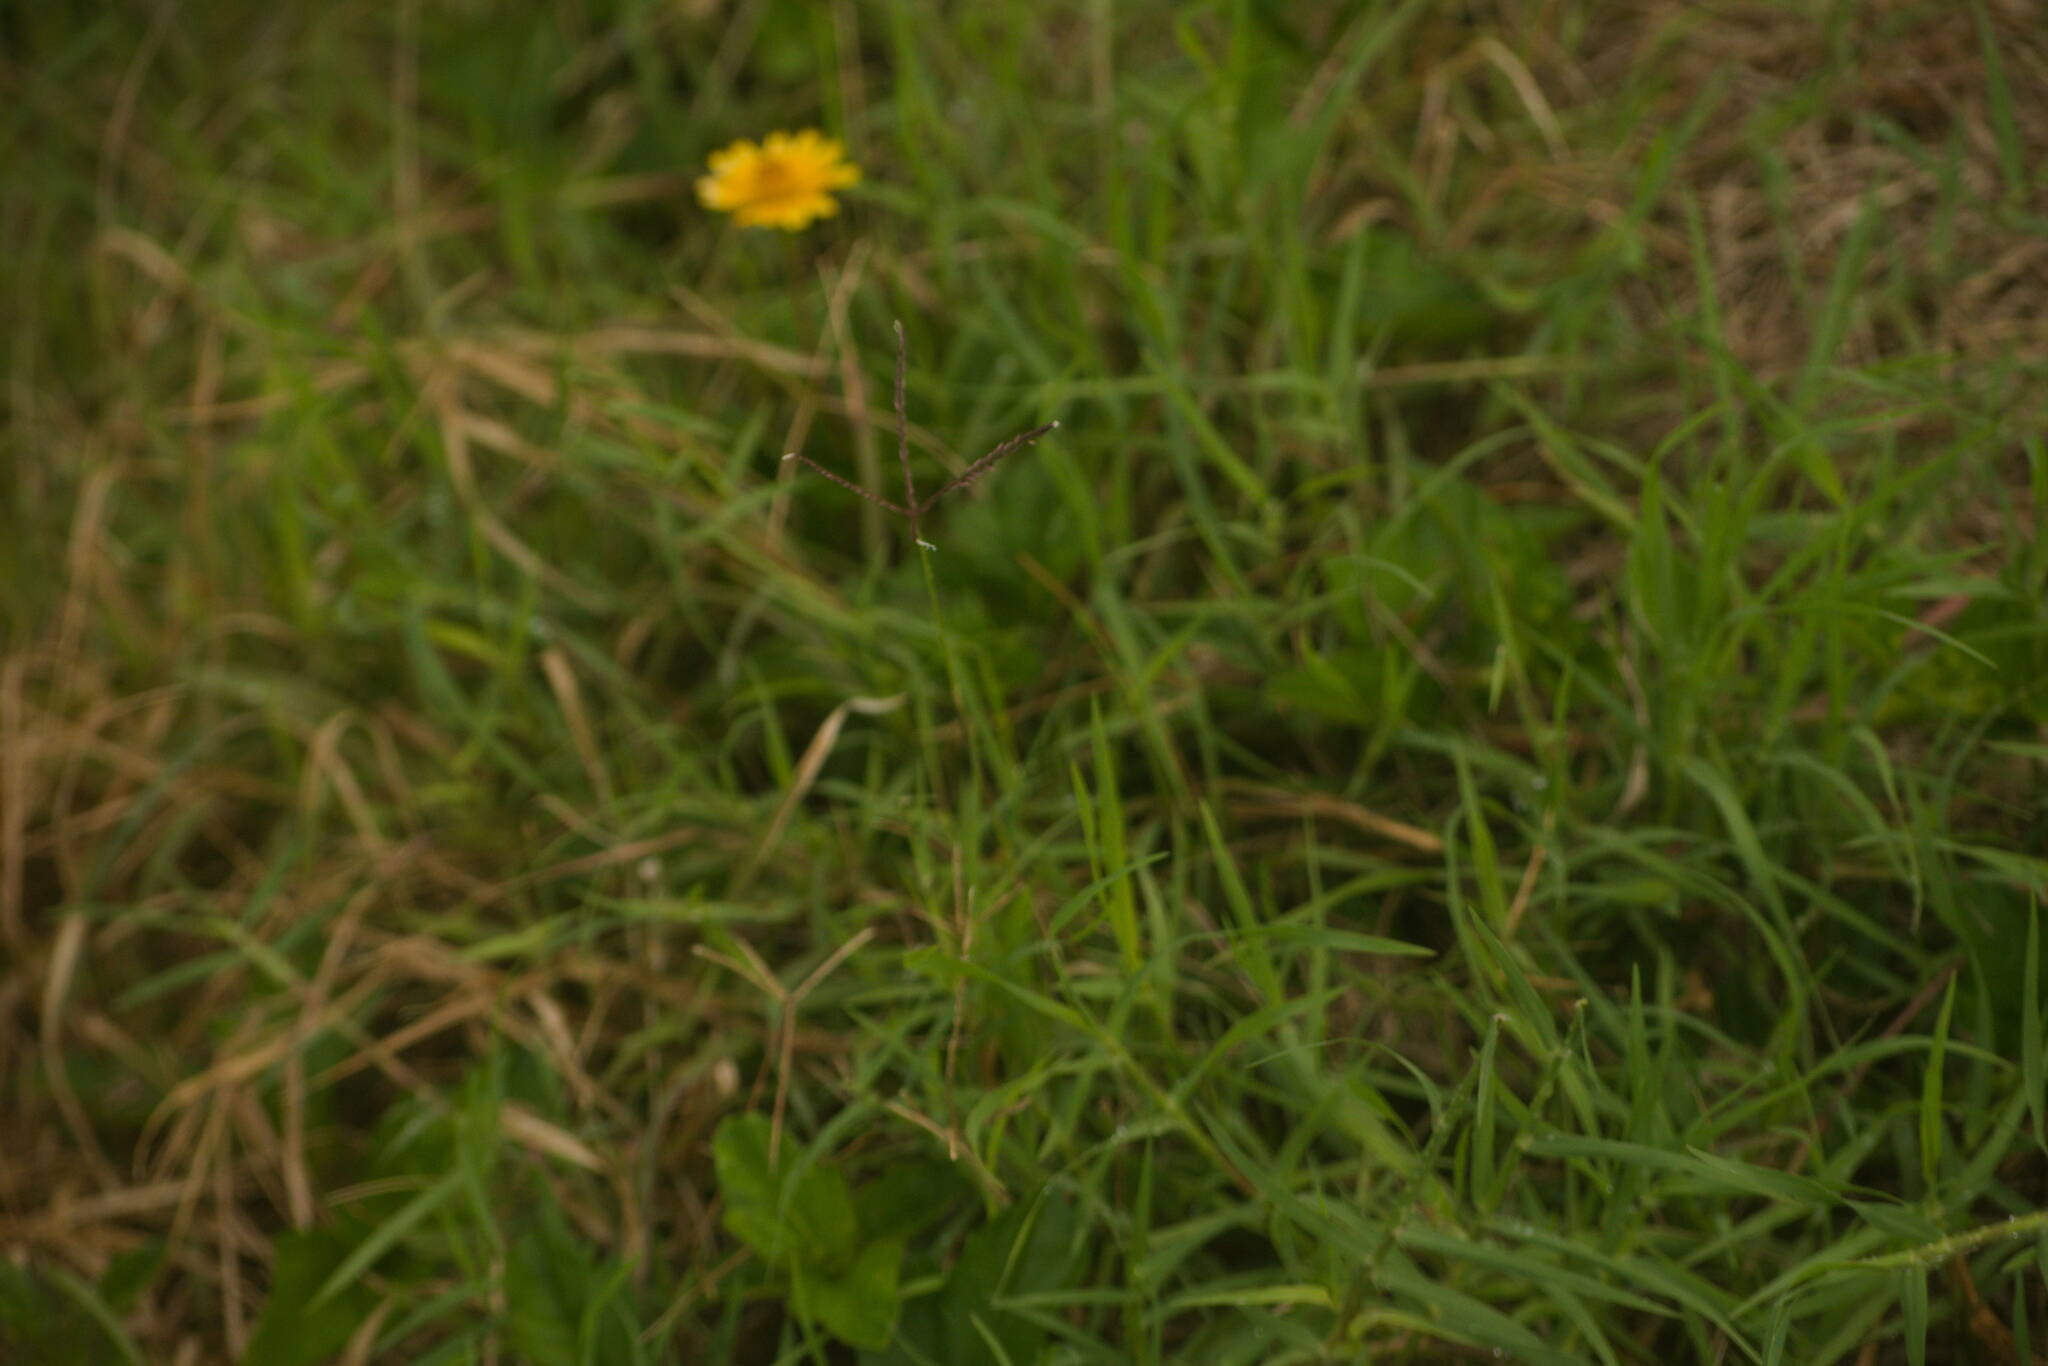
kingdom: Plantae
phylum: Tracheophyta
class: Liliopsida
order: Poales
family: Poaceae
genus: Cynodon
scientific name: Cynodon dactylon
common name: Bermuda grass
